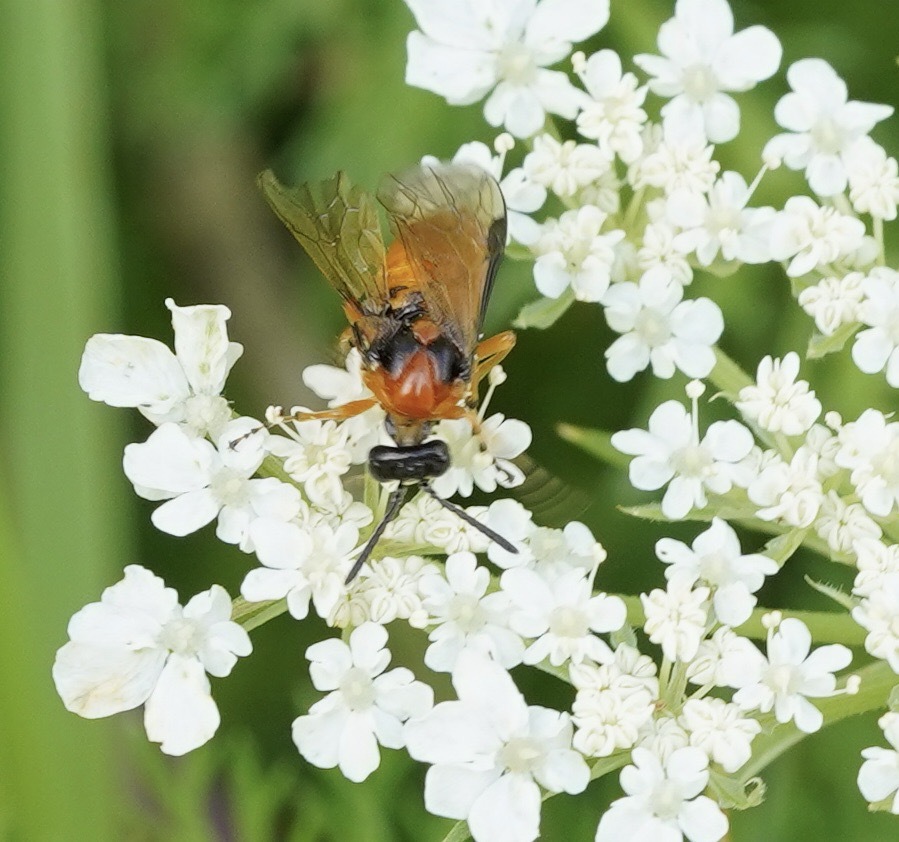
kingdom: Animalia
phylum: Arthropoda
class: Insecta
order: Hymenoptera
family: Tenthredinidae
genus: Athalia
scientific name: Athalia rosae
